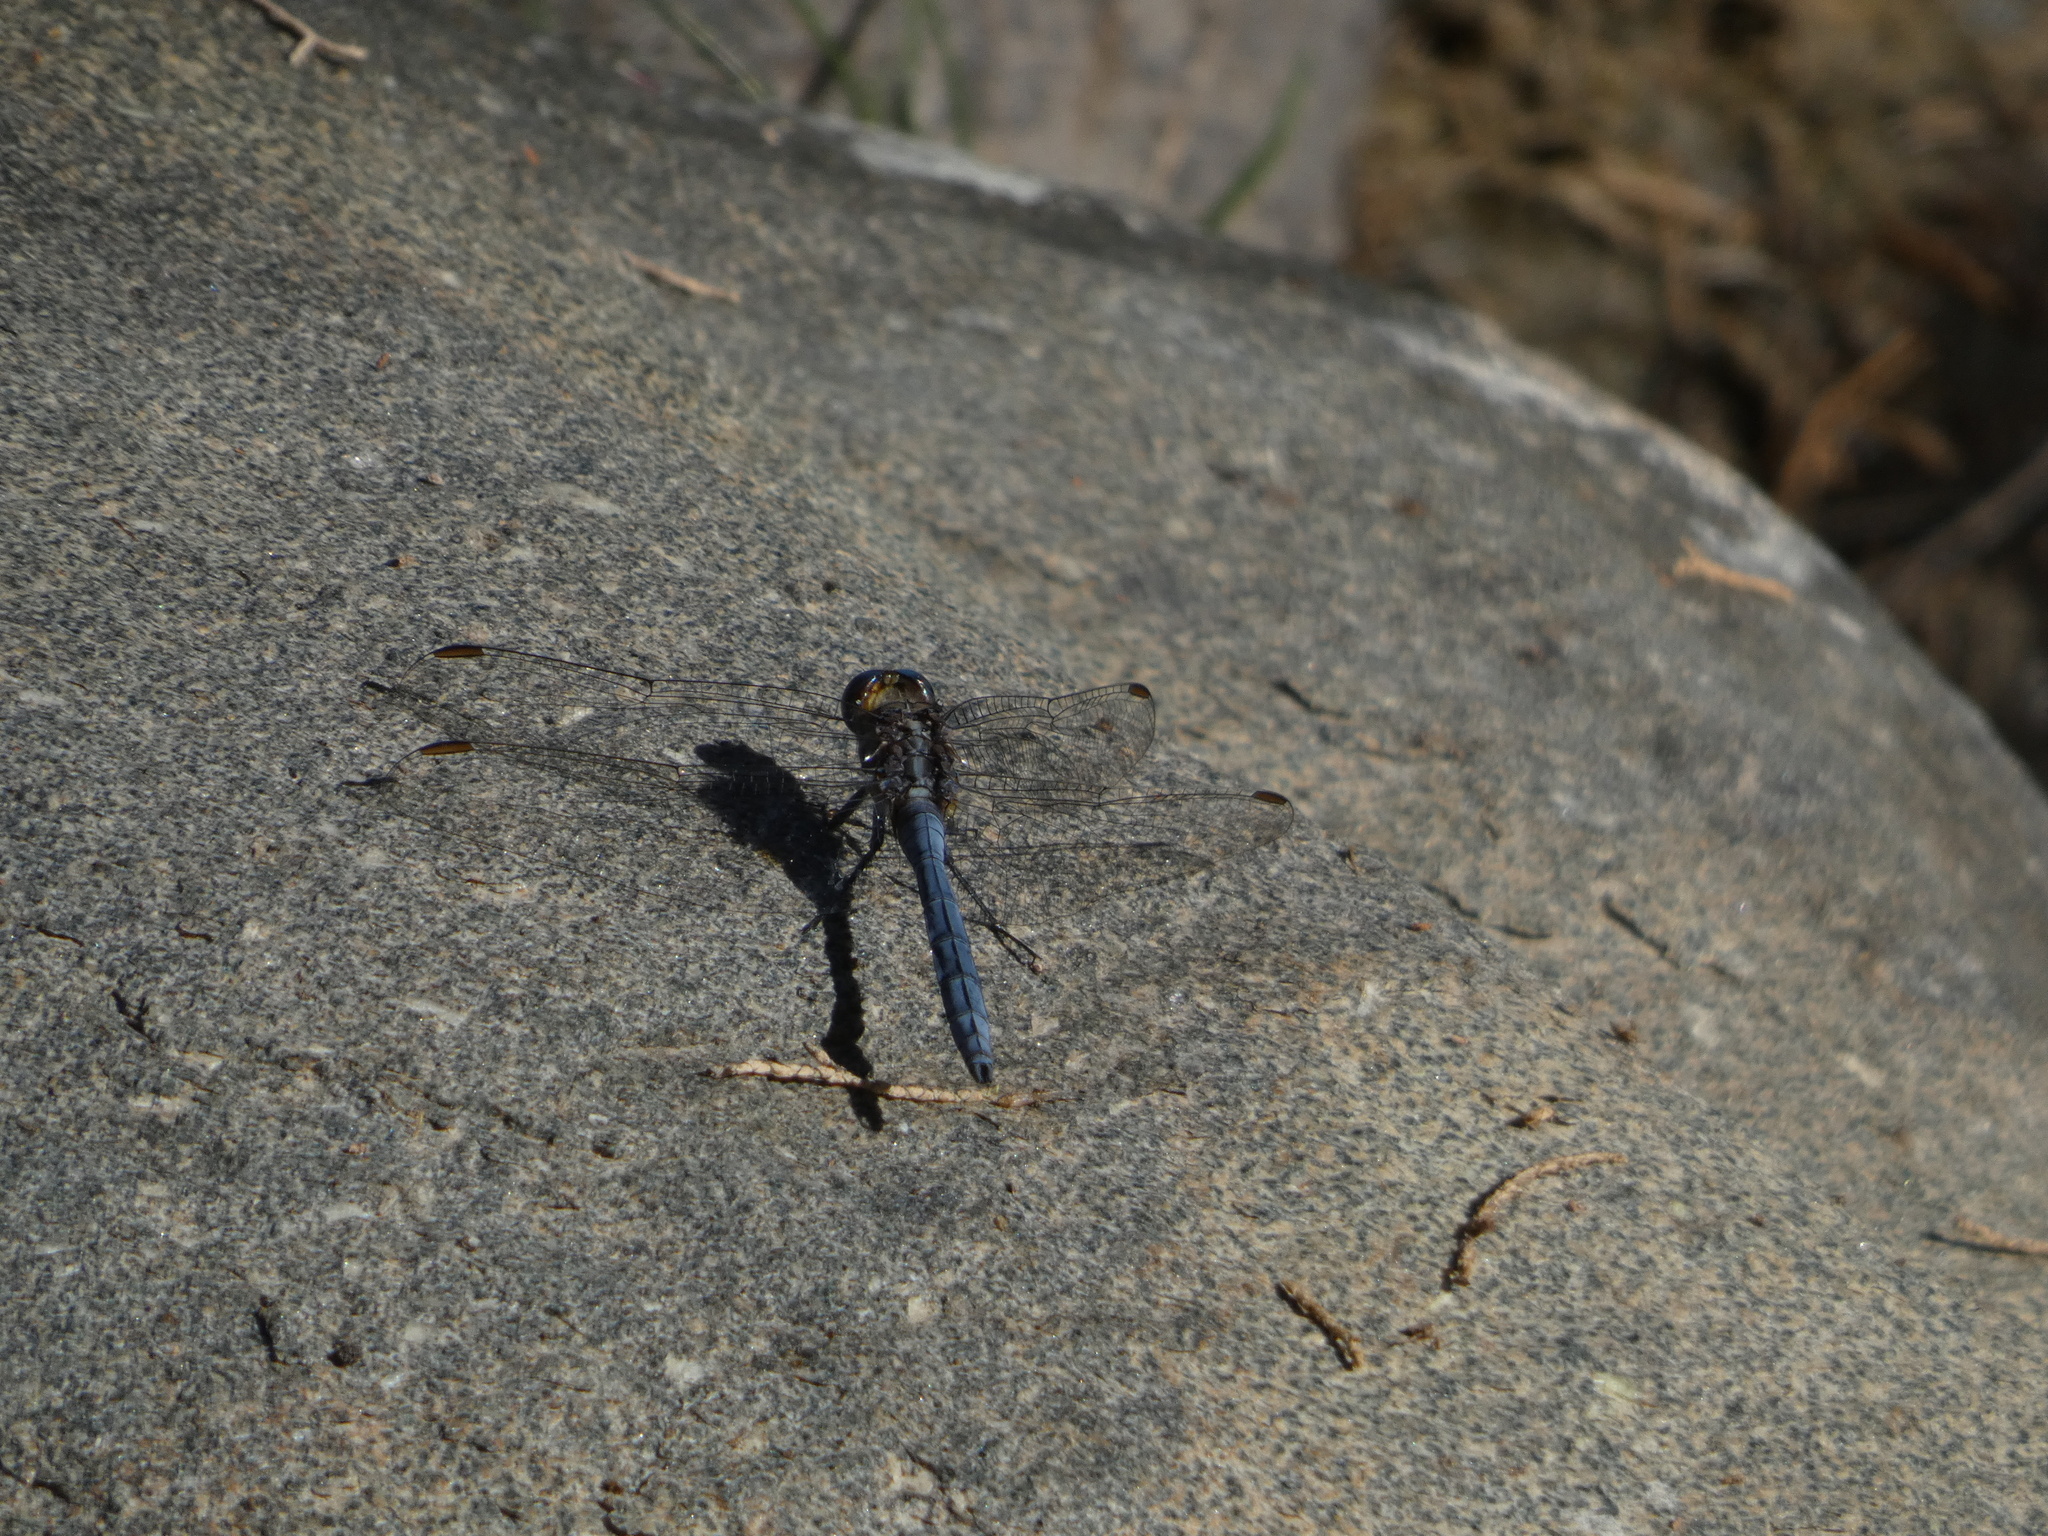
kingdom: Animalia
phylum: Arthropoda
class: Insecta
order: Odonata
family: Libellulidae
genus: Orthetrum
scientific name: Orthetrum chrysostigma
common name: Epaulet skimmer
